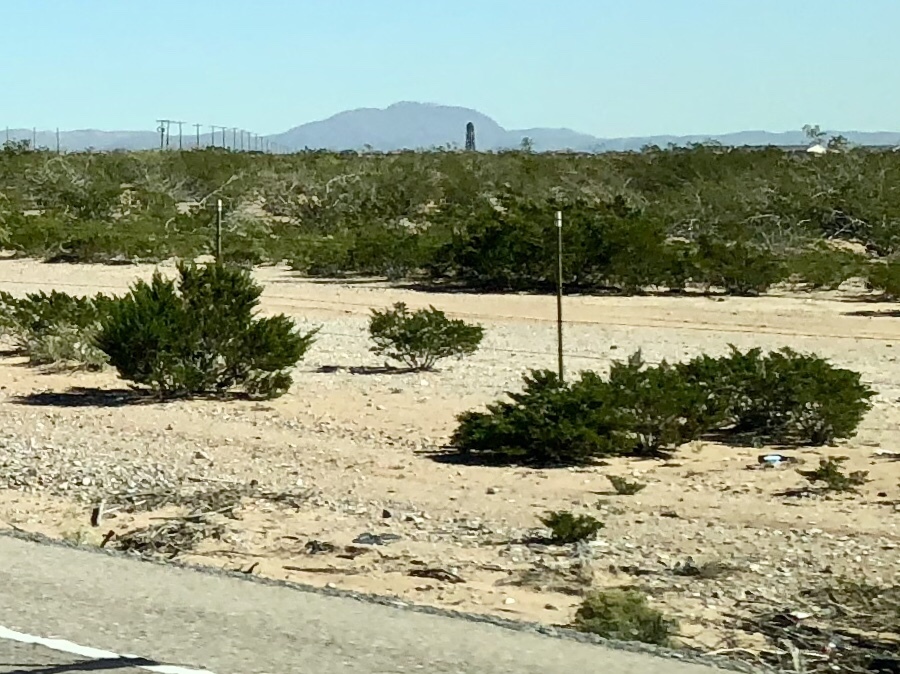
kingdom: Plantae
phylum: Tracheophyta
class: Magnoliopsida
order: Zygophyllales
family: Zygophyllaceae
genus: Larrea
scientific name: Larrea tridentata
